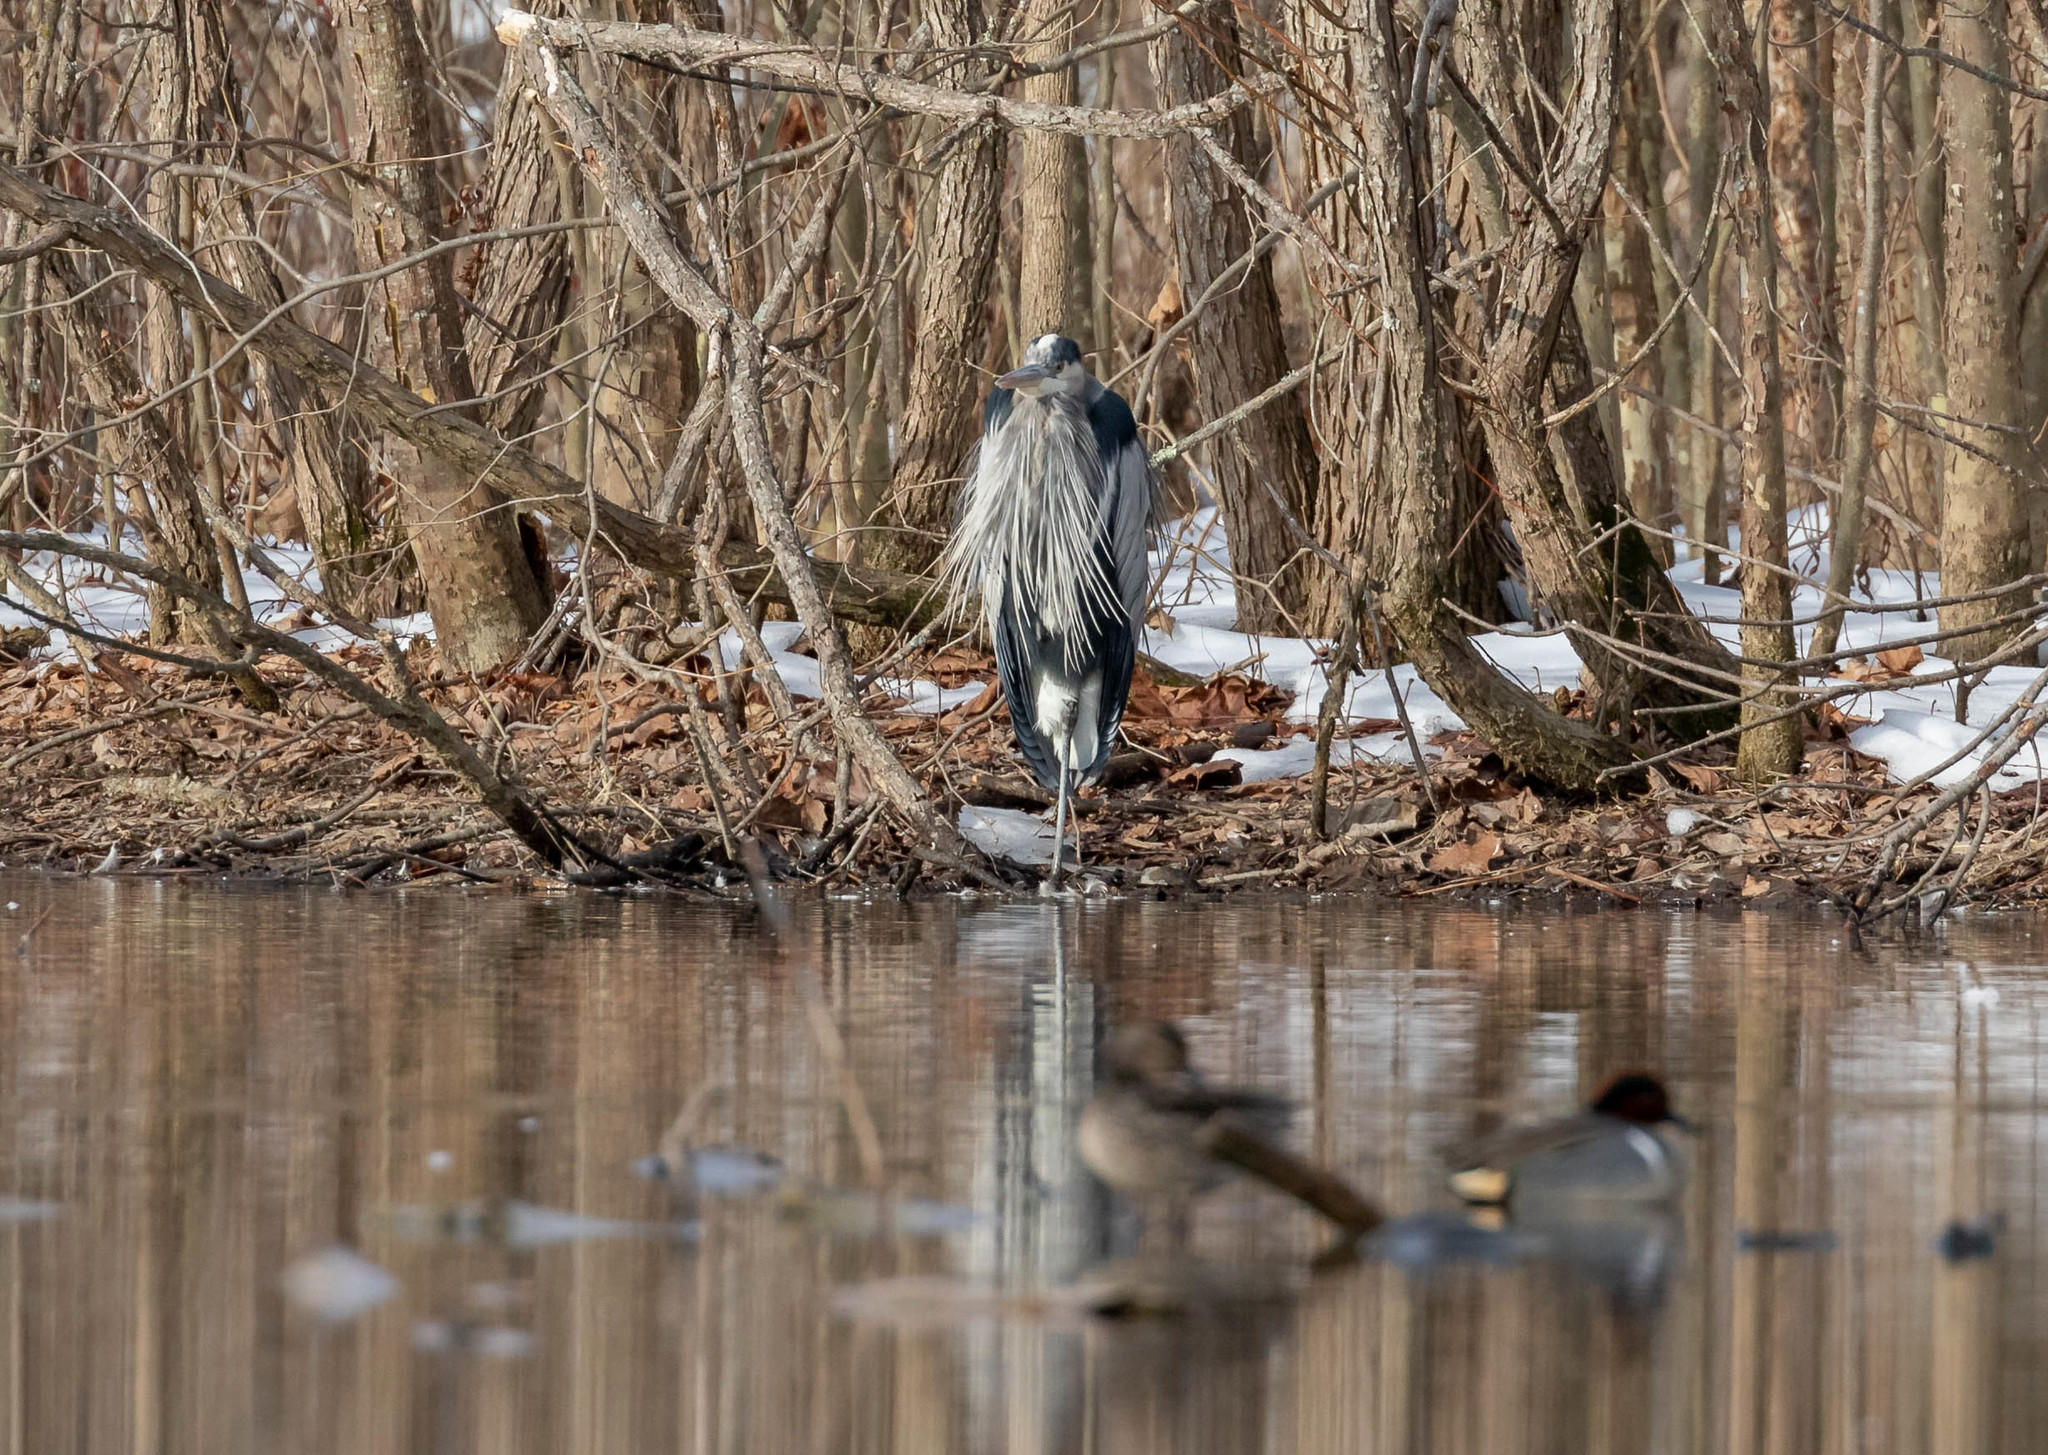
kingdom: Animalia
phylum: Chordata
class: Aves
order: Pelecaniformes
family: Ardeidae
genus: Ardea
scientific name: Ardea herodias
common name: Great blue heron
